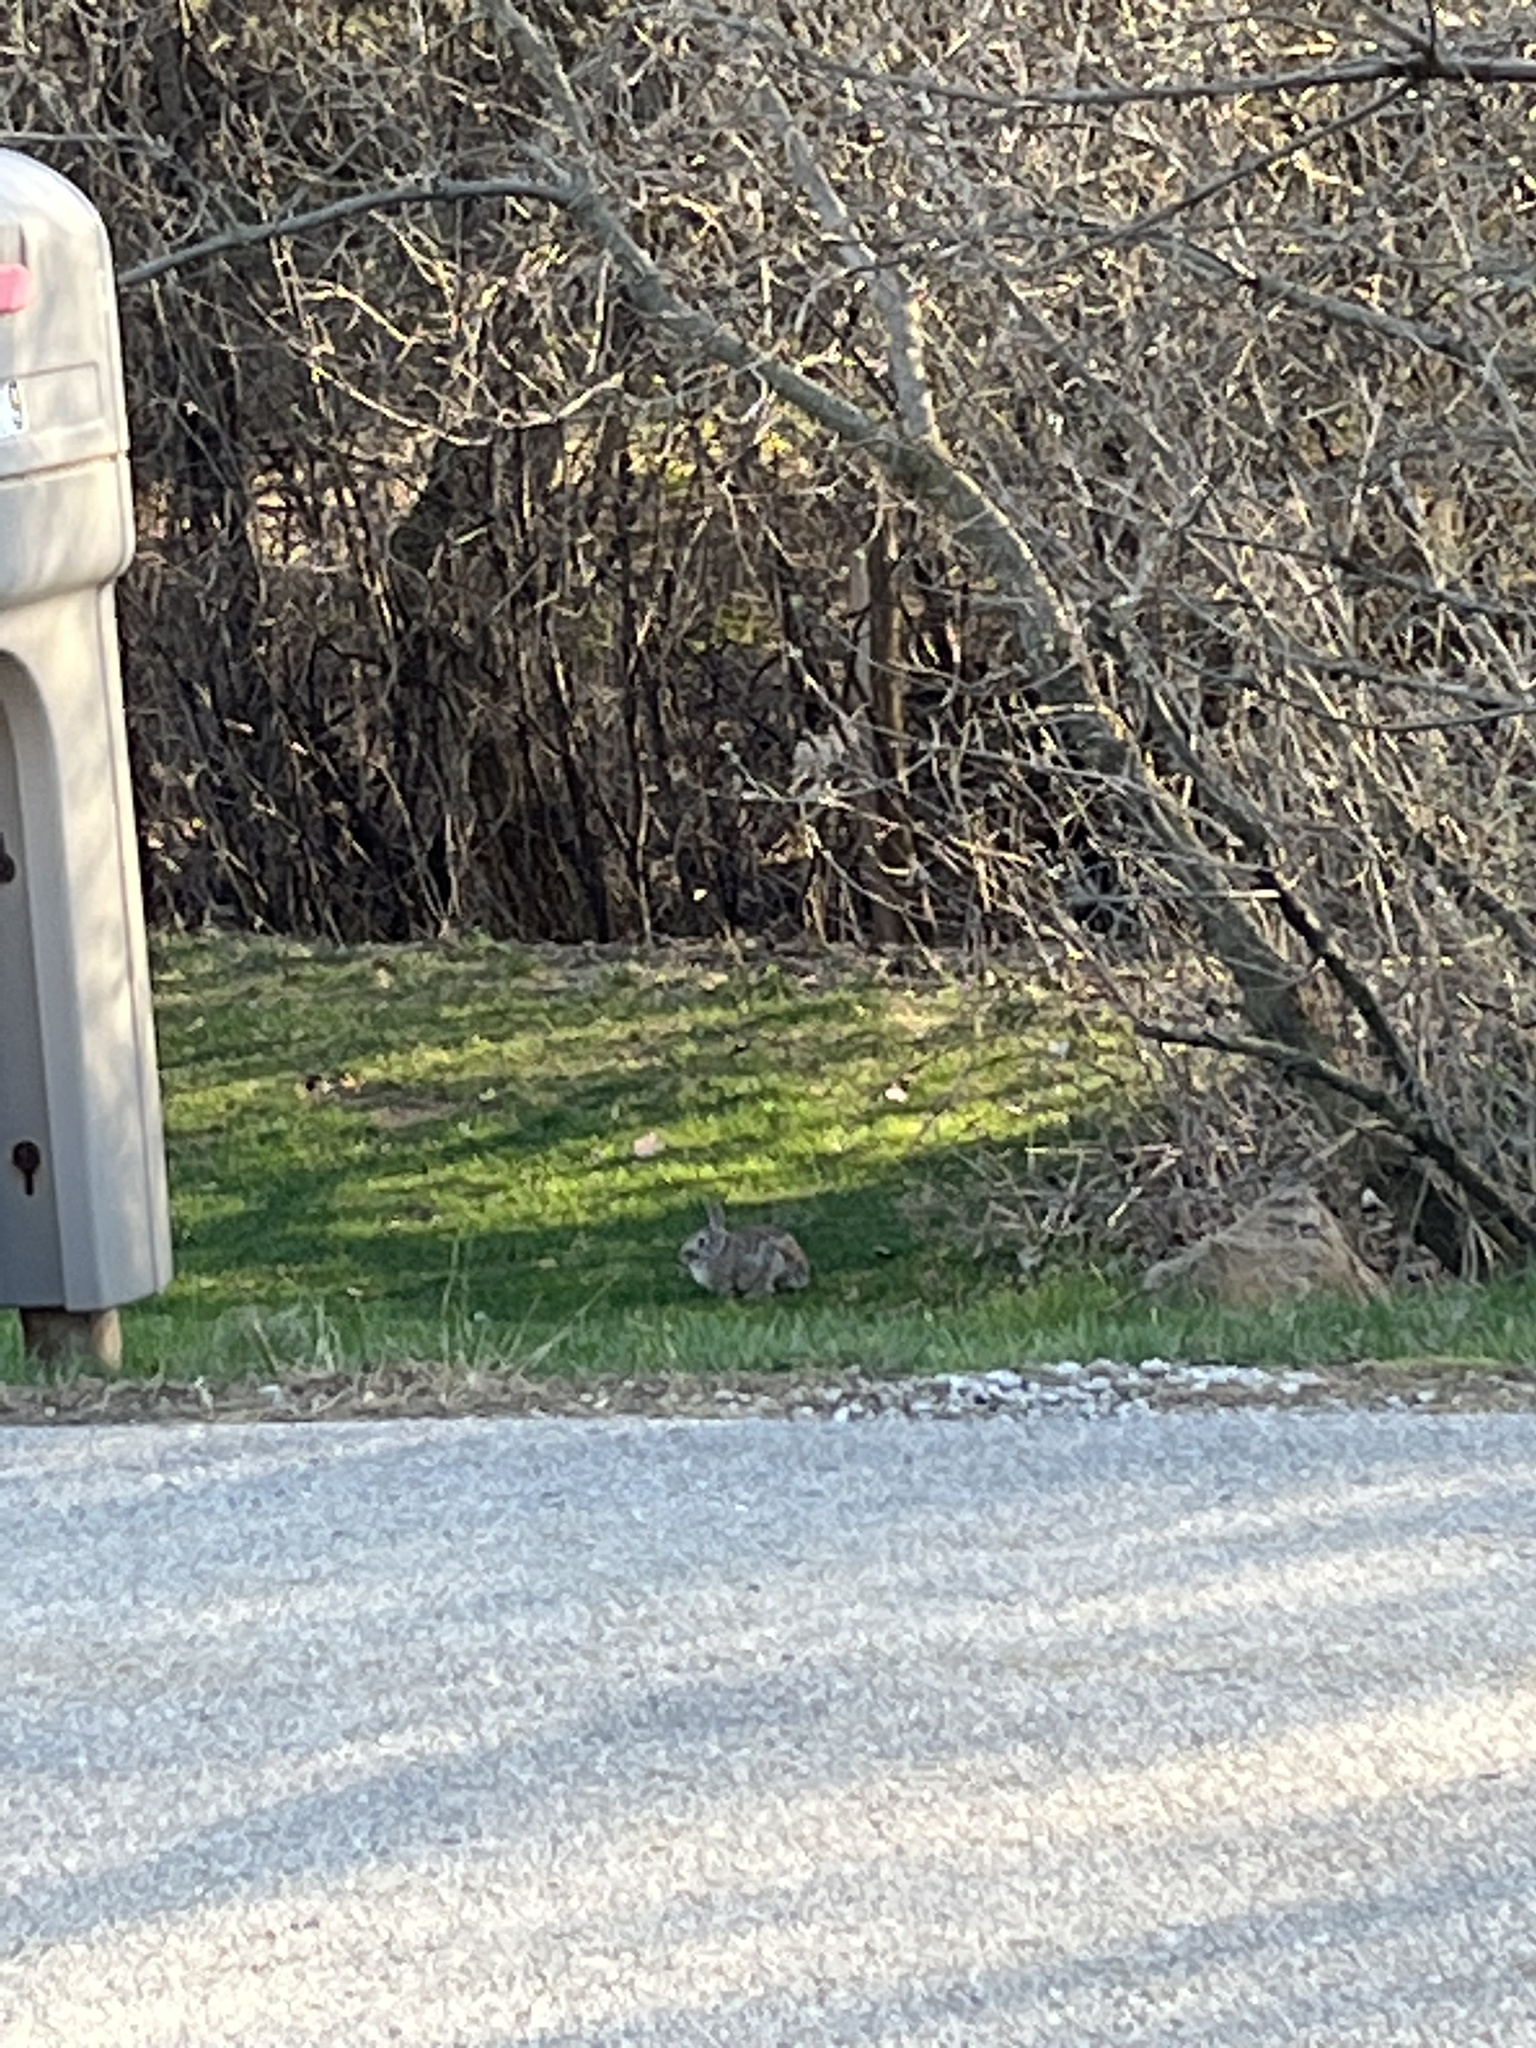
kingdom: Animalia
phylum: Chordata
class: Mammalia
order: Lagomorpha
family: Leporidae
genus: Sylvilagus
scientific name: Sylvilagus floridanus
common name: Eastern cottontail
